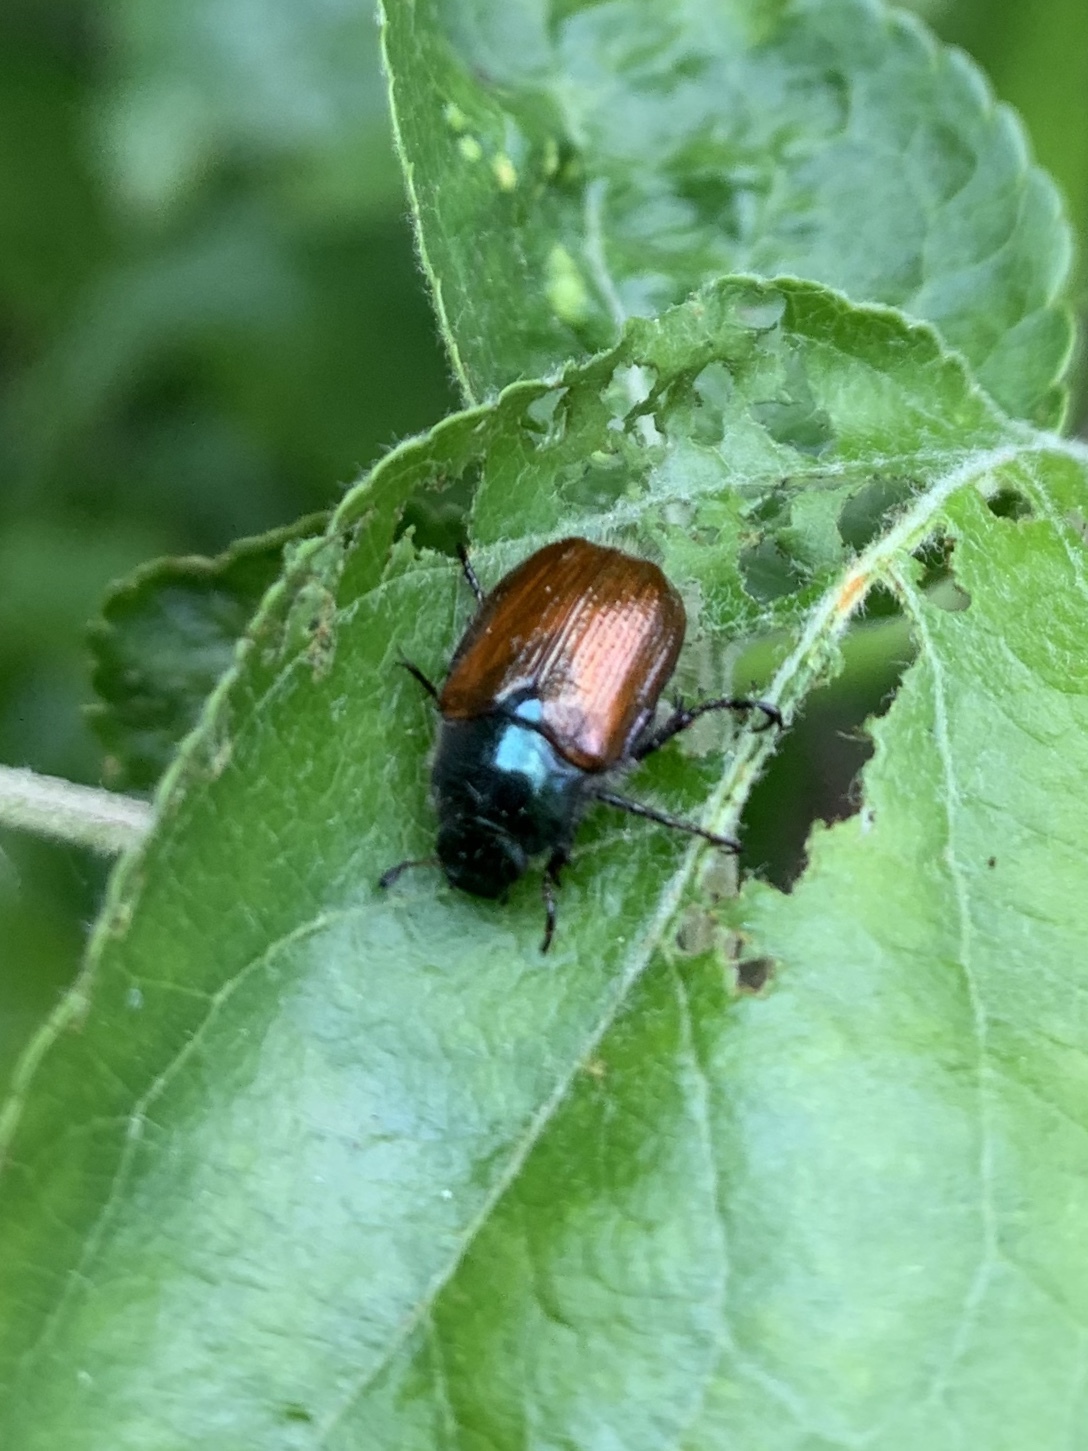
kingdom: Animalia
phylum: Arthropoda
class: Insecta
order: Coleoptera
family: Scarabaeidae
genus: Phyllopertha
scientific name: Phyllopertha horticola
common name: Garden chafer
